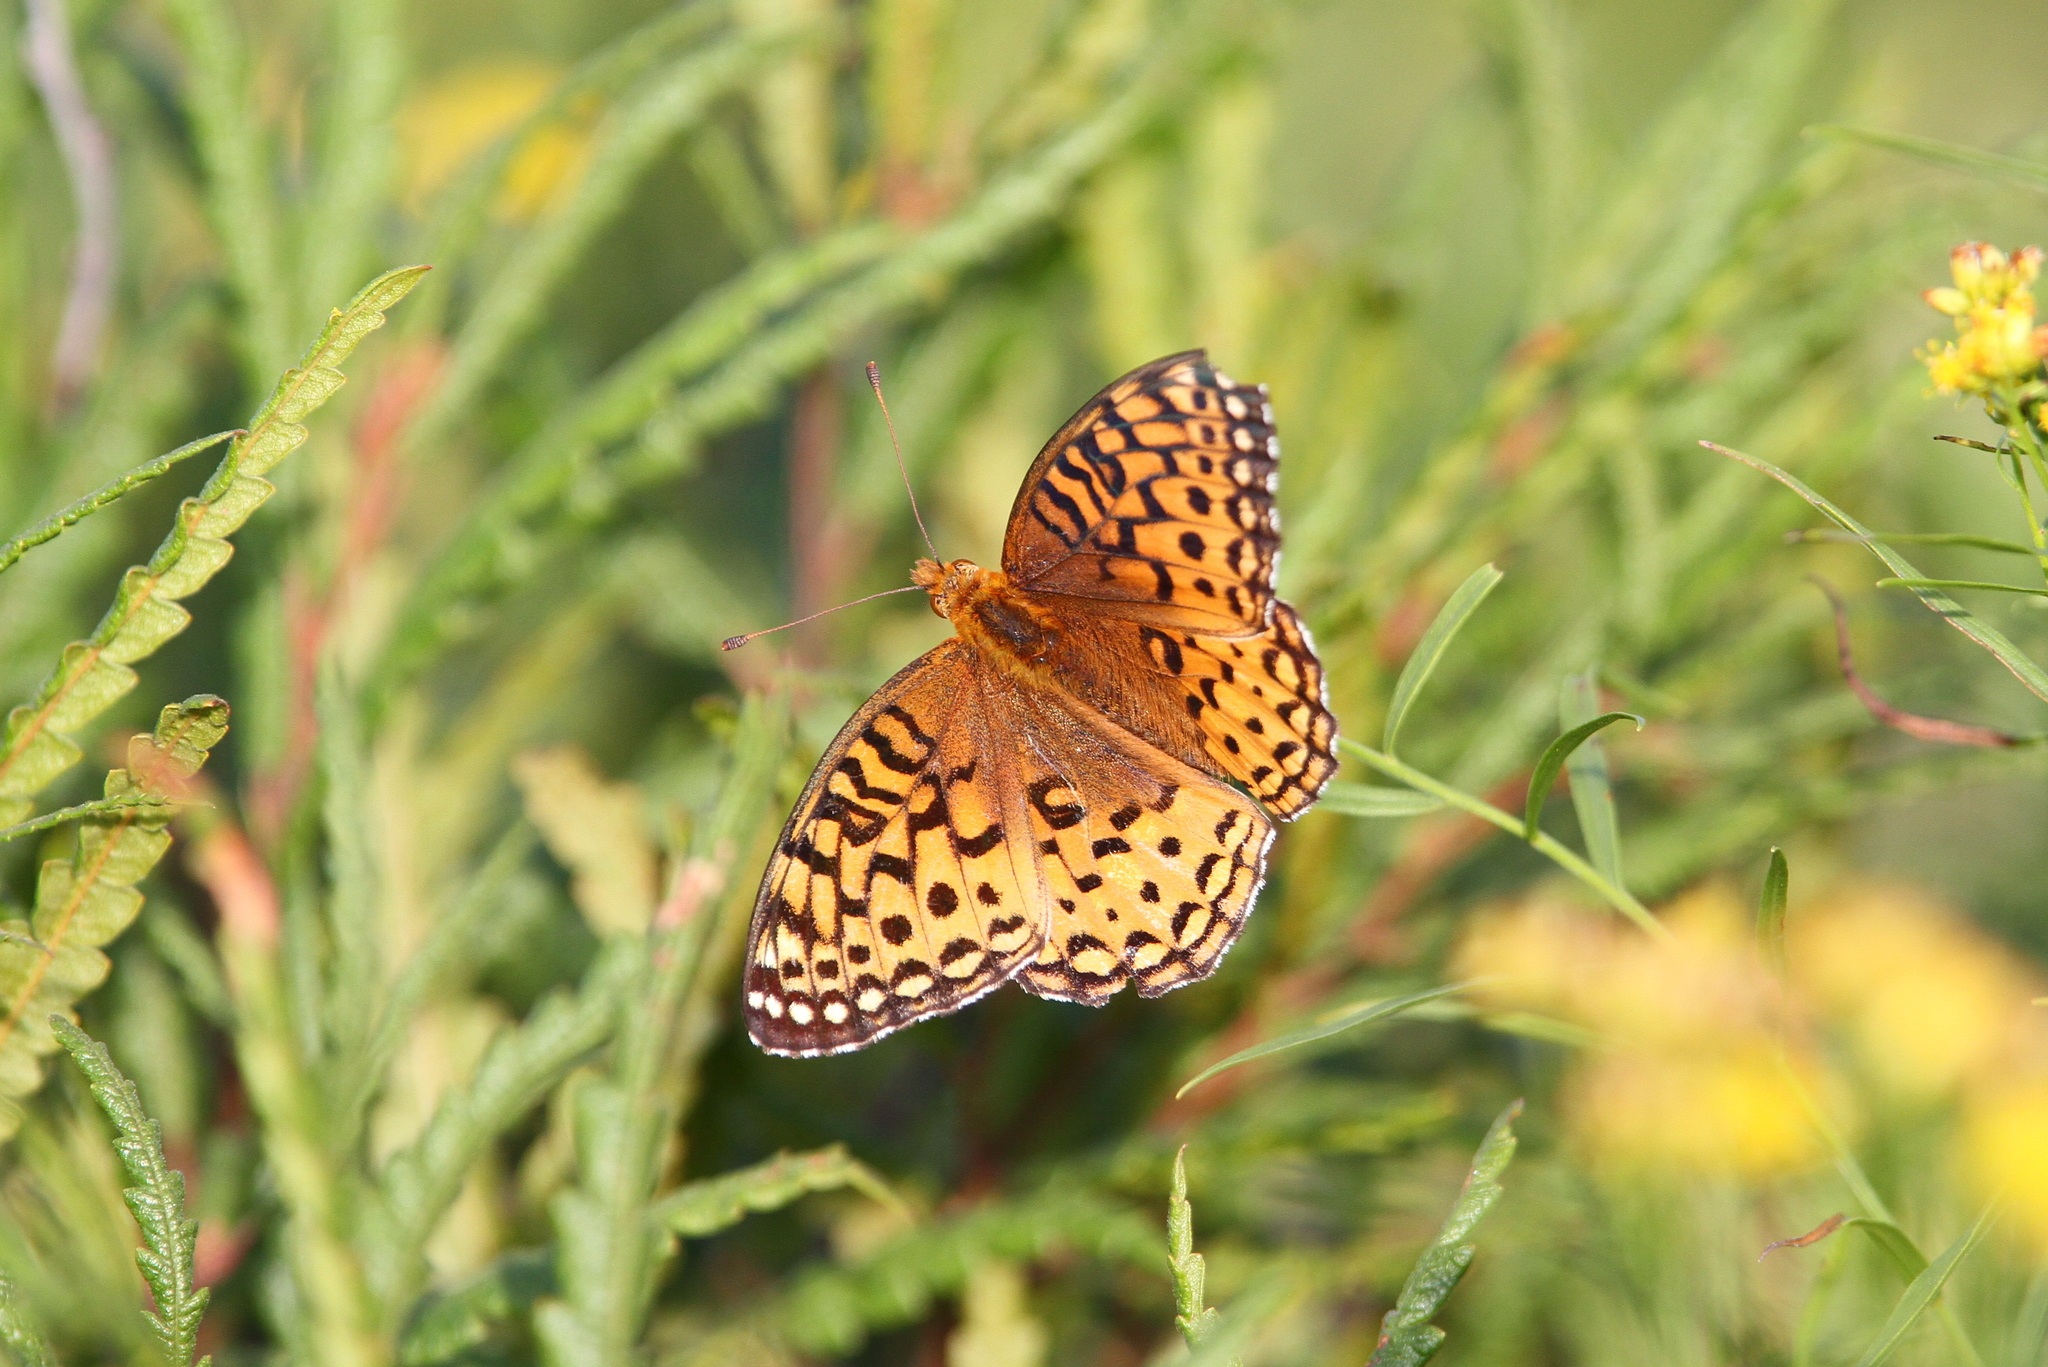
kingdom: Animalia
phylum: Arthropoda
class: Insecta
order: Lepidoptera
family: Nymphalidae
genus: Speyeria
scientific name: Speyeria aphrodite
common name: Aphrodite friitllary
